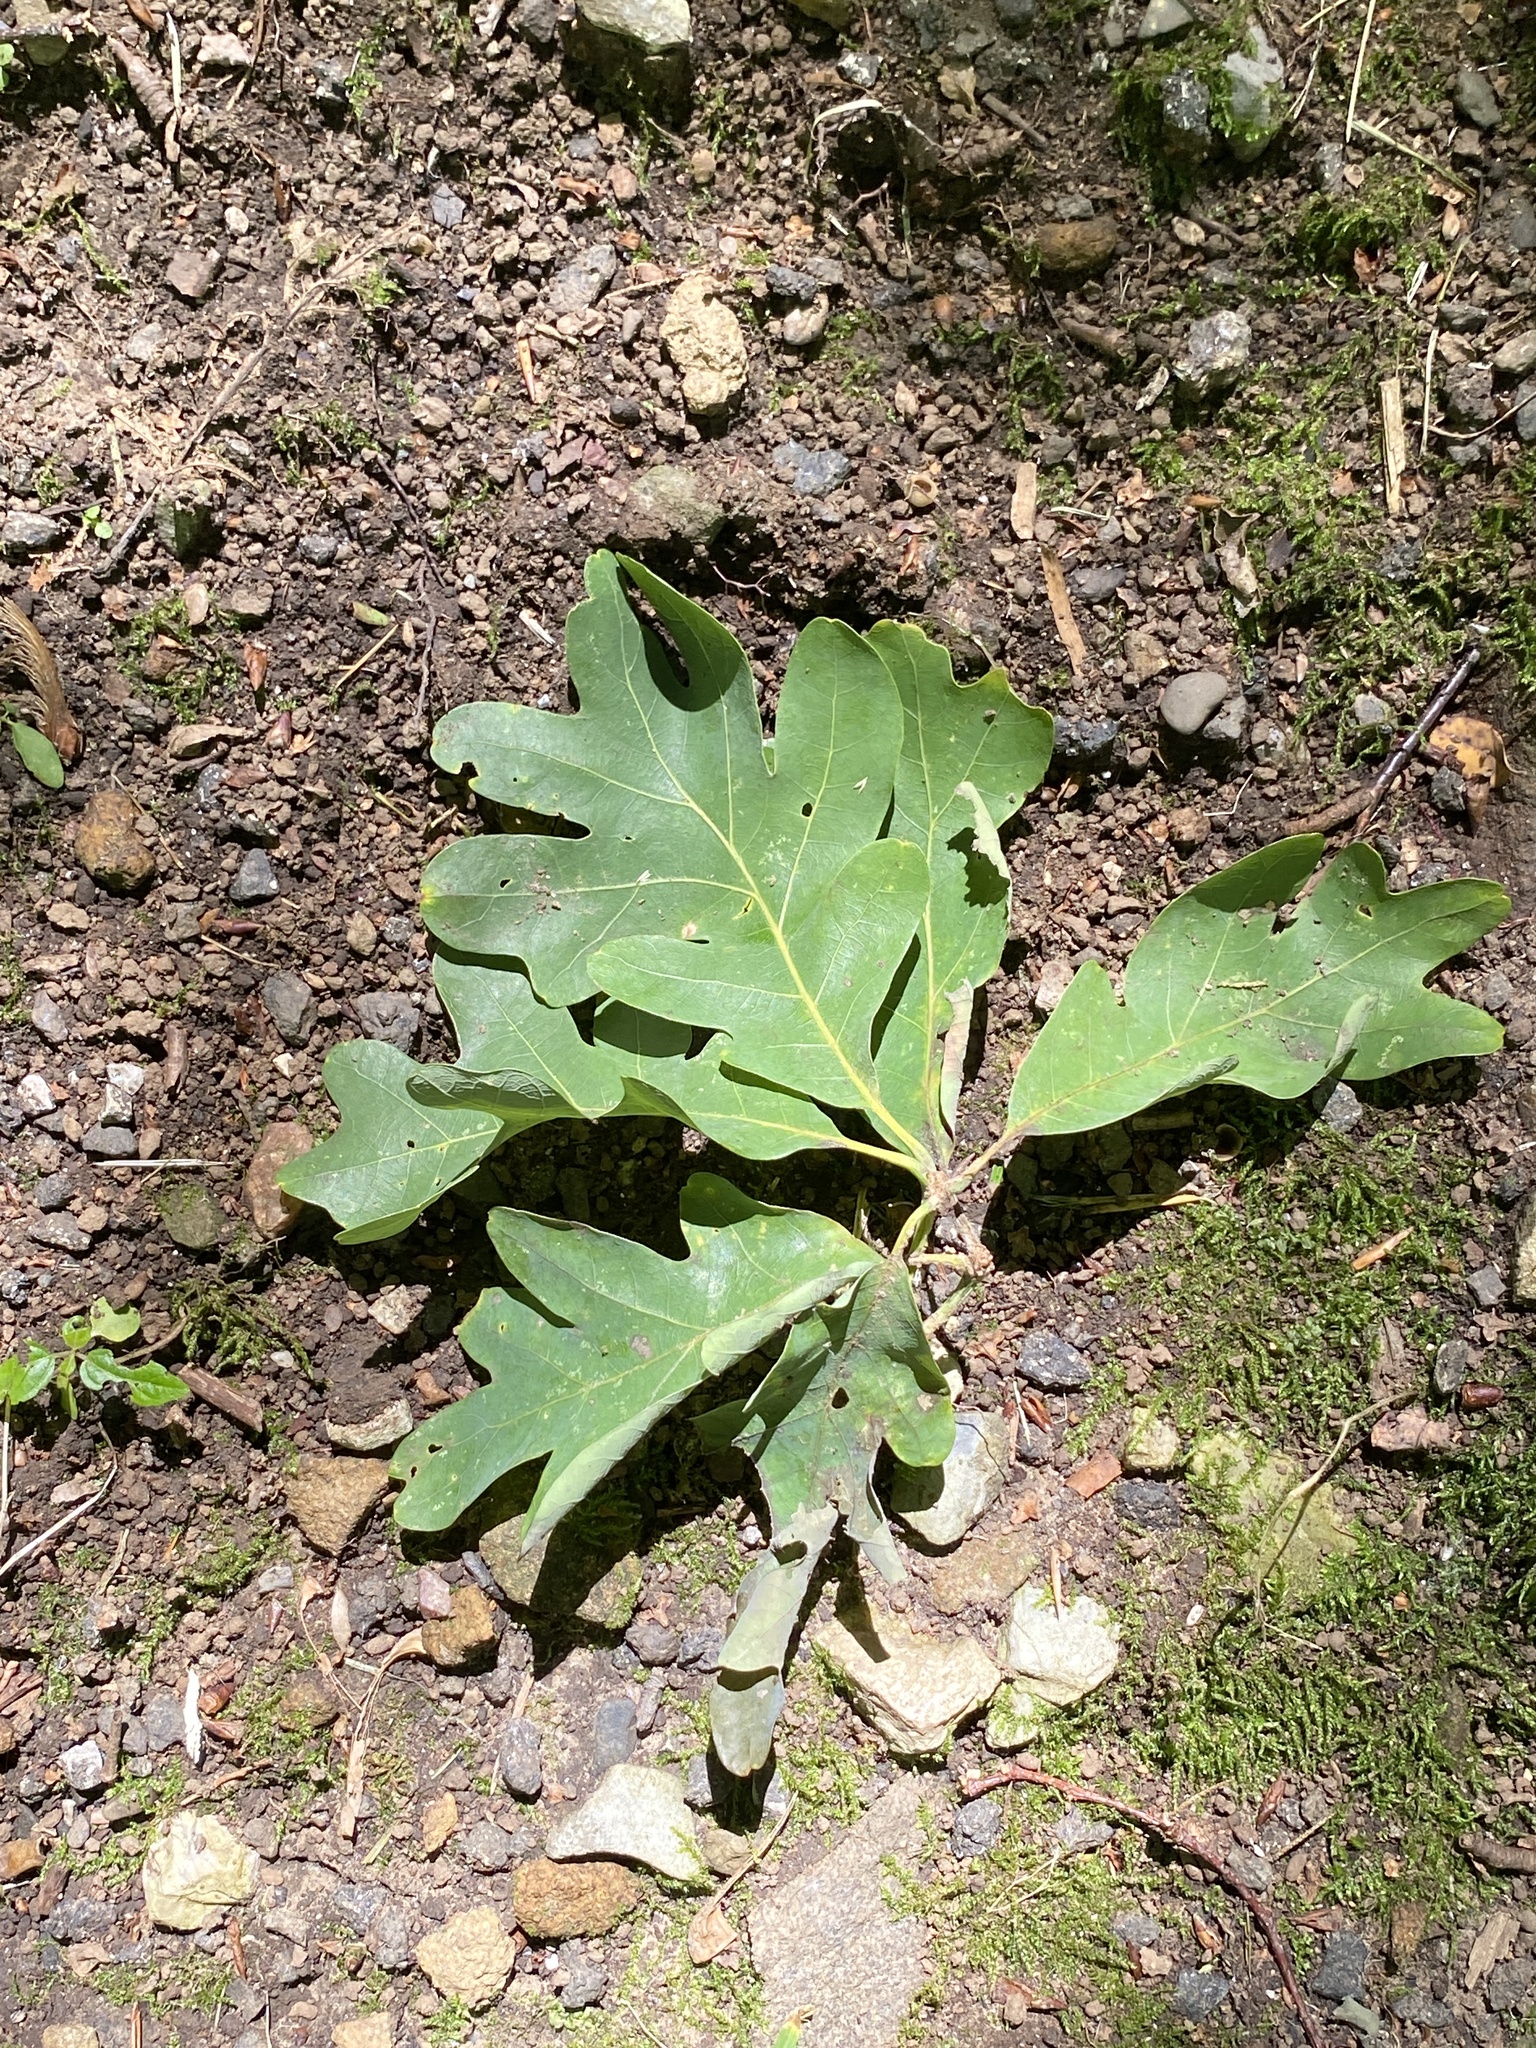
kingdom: Plantae
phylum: Tracheophyta
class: Magnoliopsida
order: Fagales
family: Fagaceae
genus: Quercus
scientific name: Quercus alba
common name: White oak
